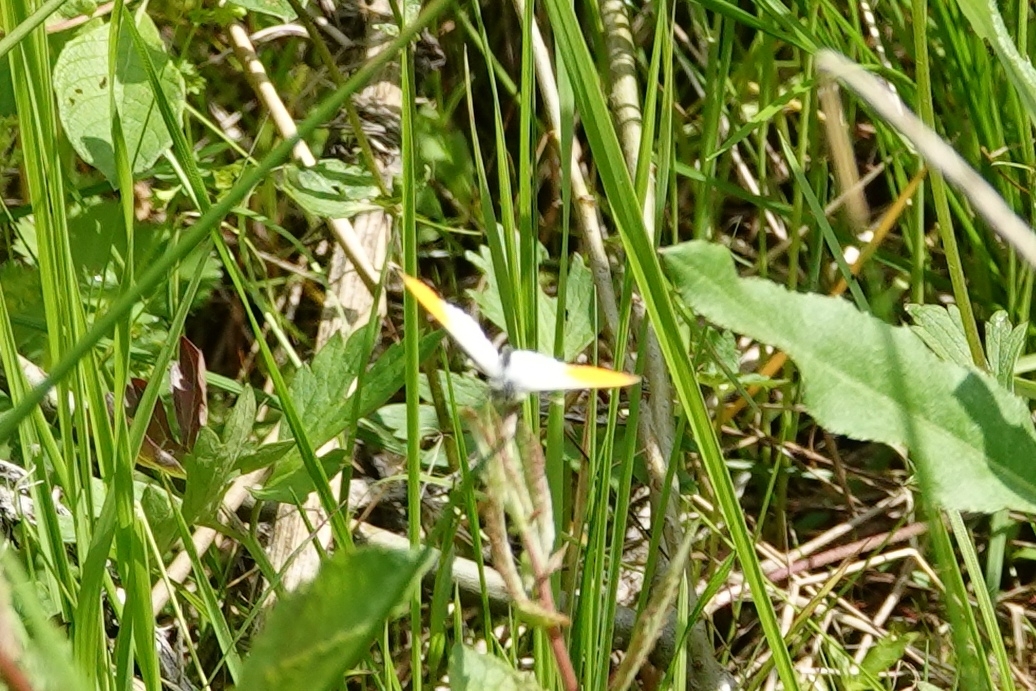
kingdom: Animalia
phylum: Arthropoda
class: Insecta
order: Lepidoptera
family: Pieridae
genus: Anthocharis
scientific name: Anthocharis cardamines
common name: Orange-tip
